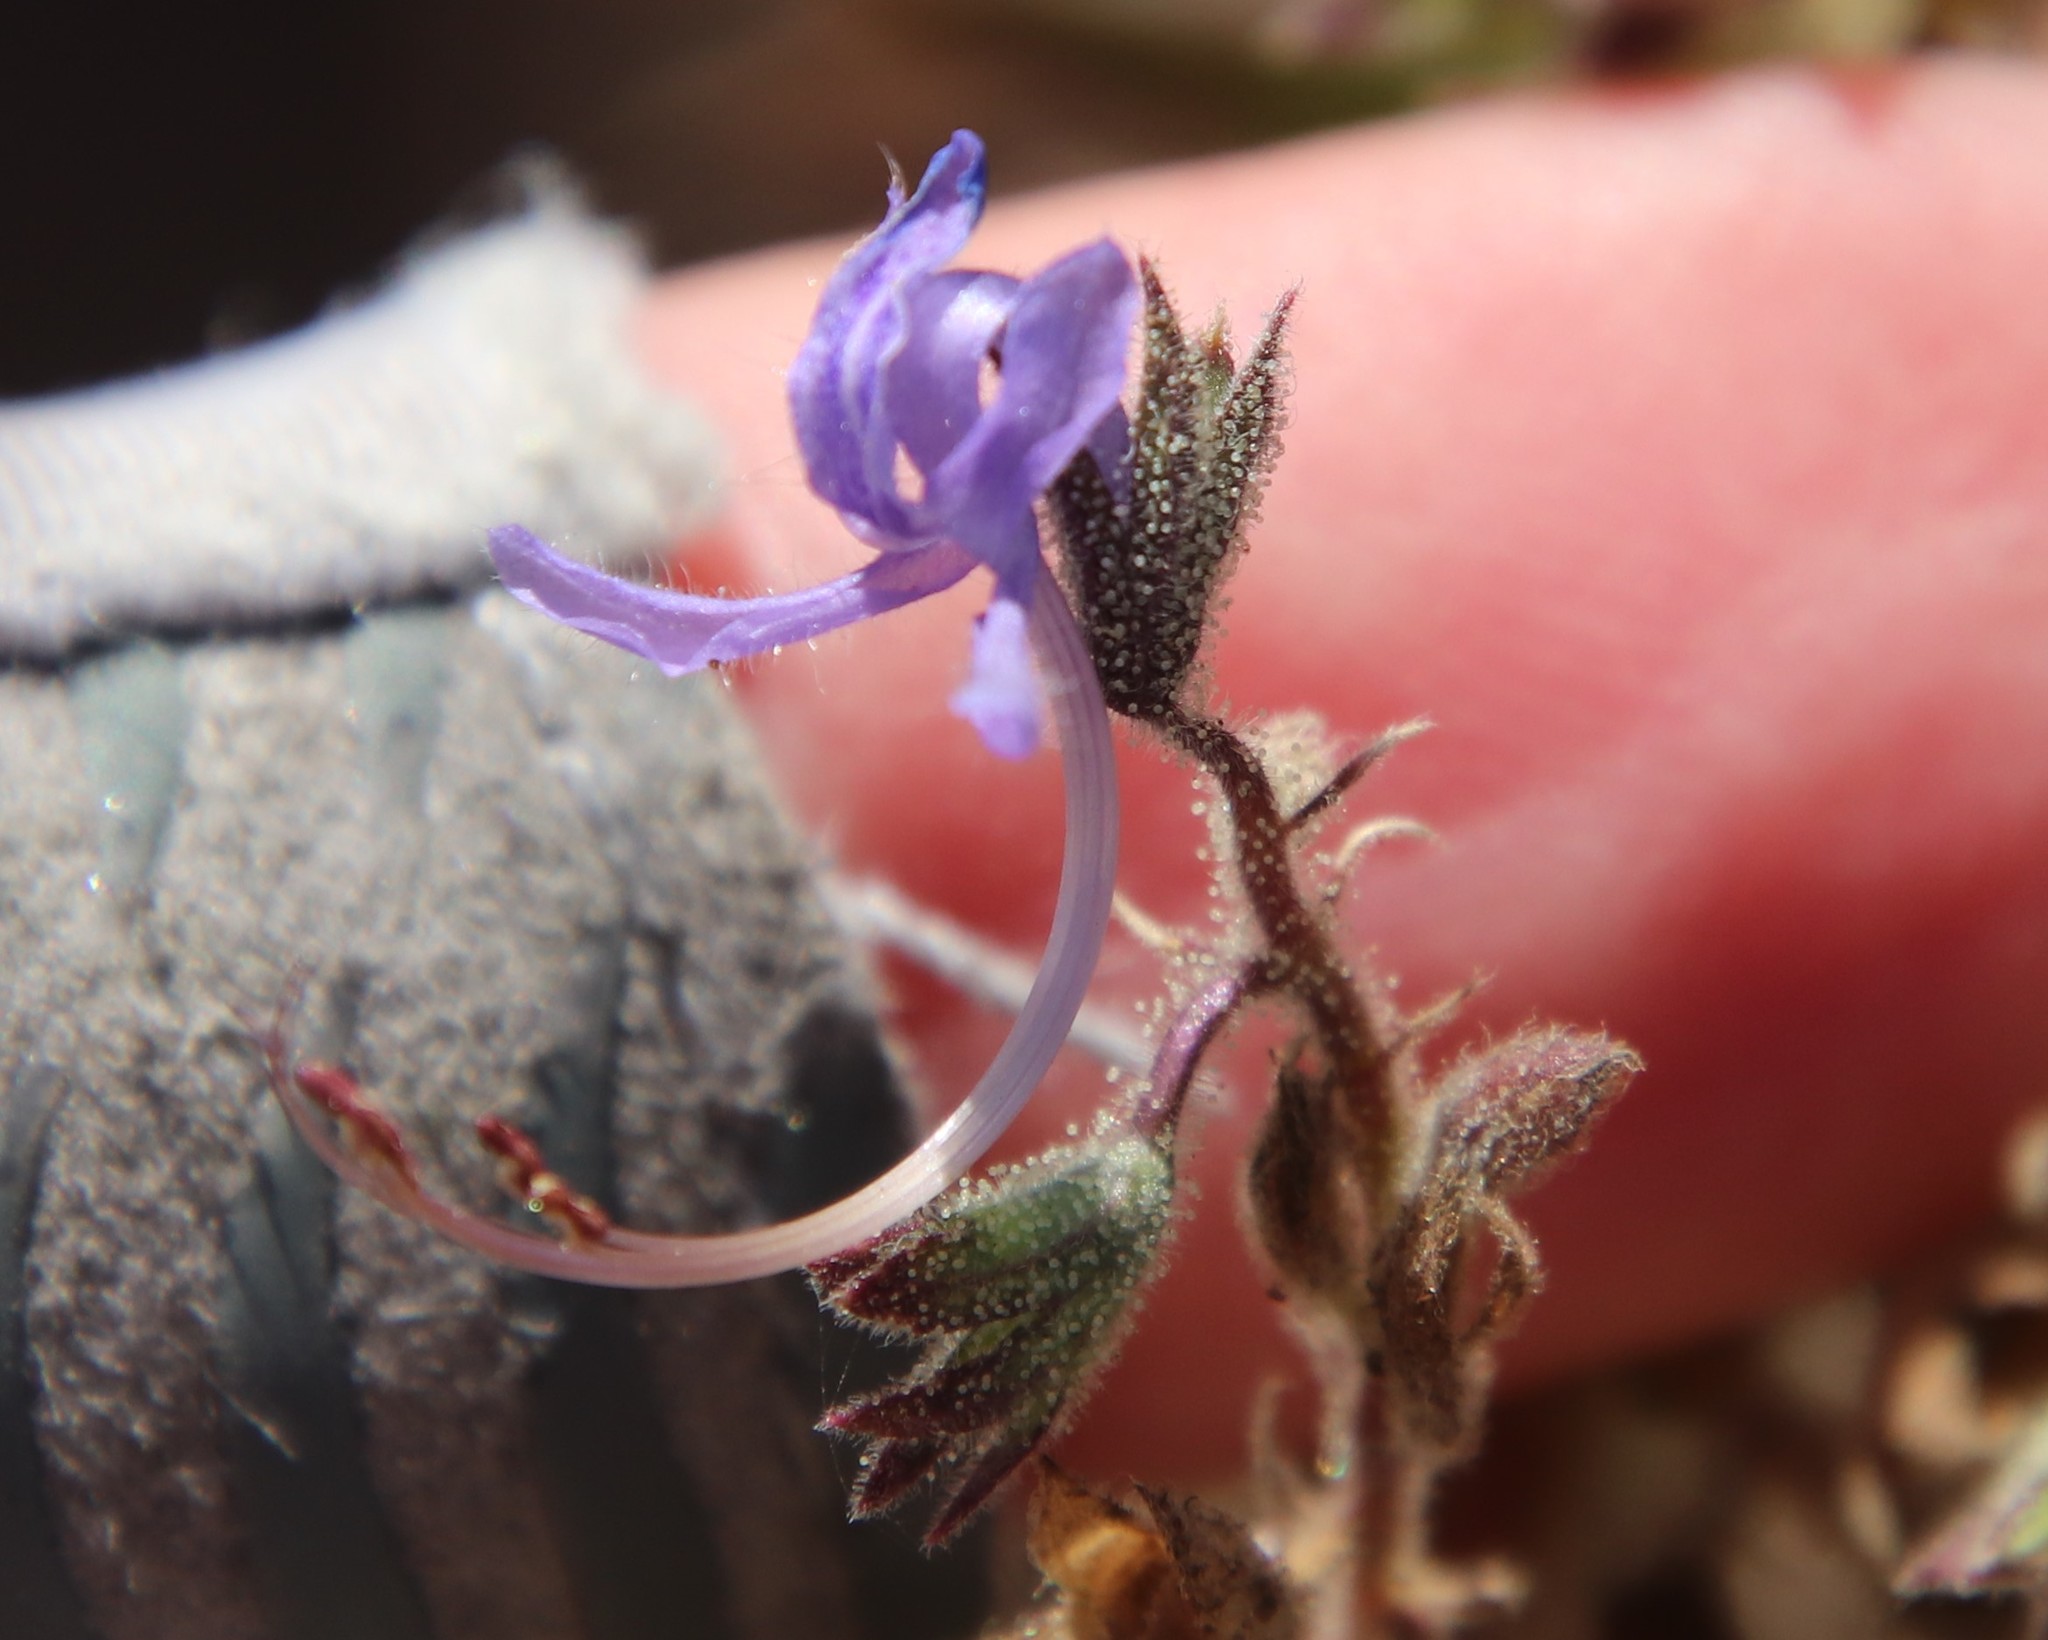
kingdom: Plantae
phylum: Tracheophyta
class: Magnoliopsida
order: Lamiales
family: Lamiaceae
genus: Trichostema
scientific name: Trichostema lanceolatum
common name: Vinegar-weed
